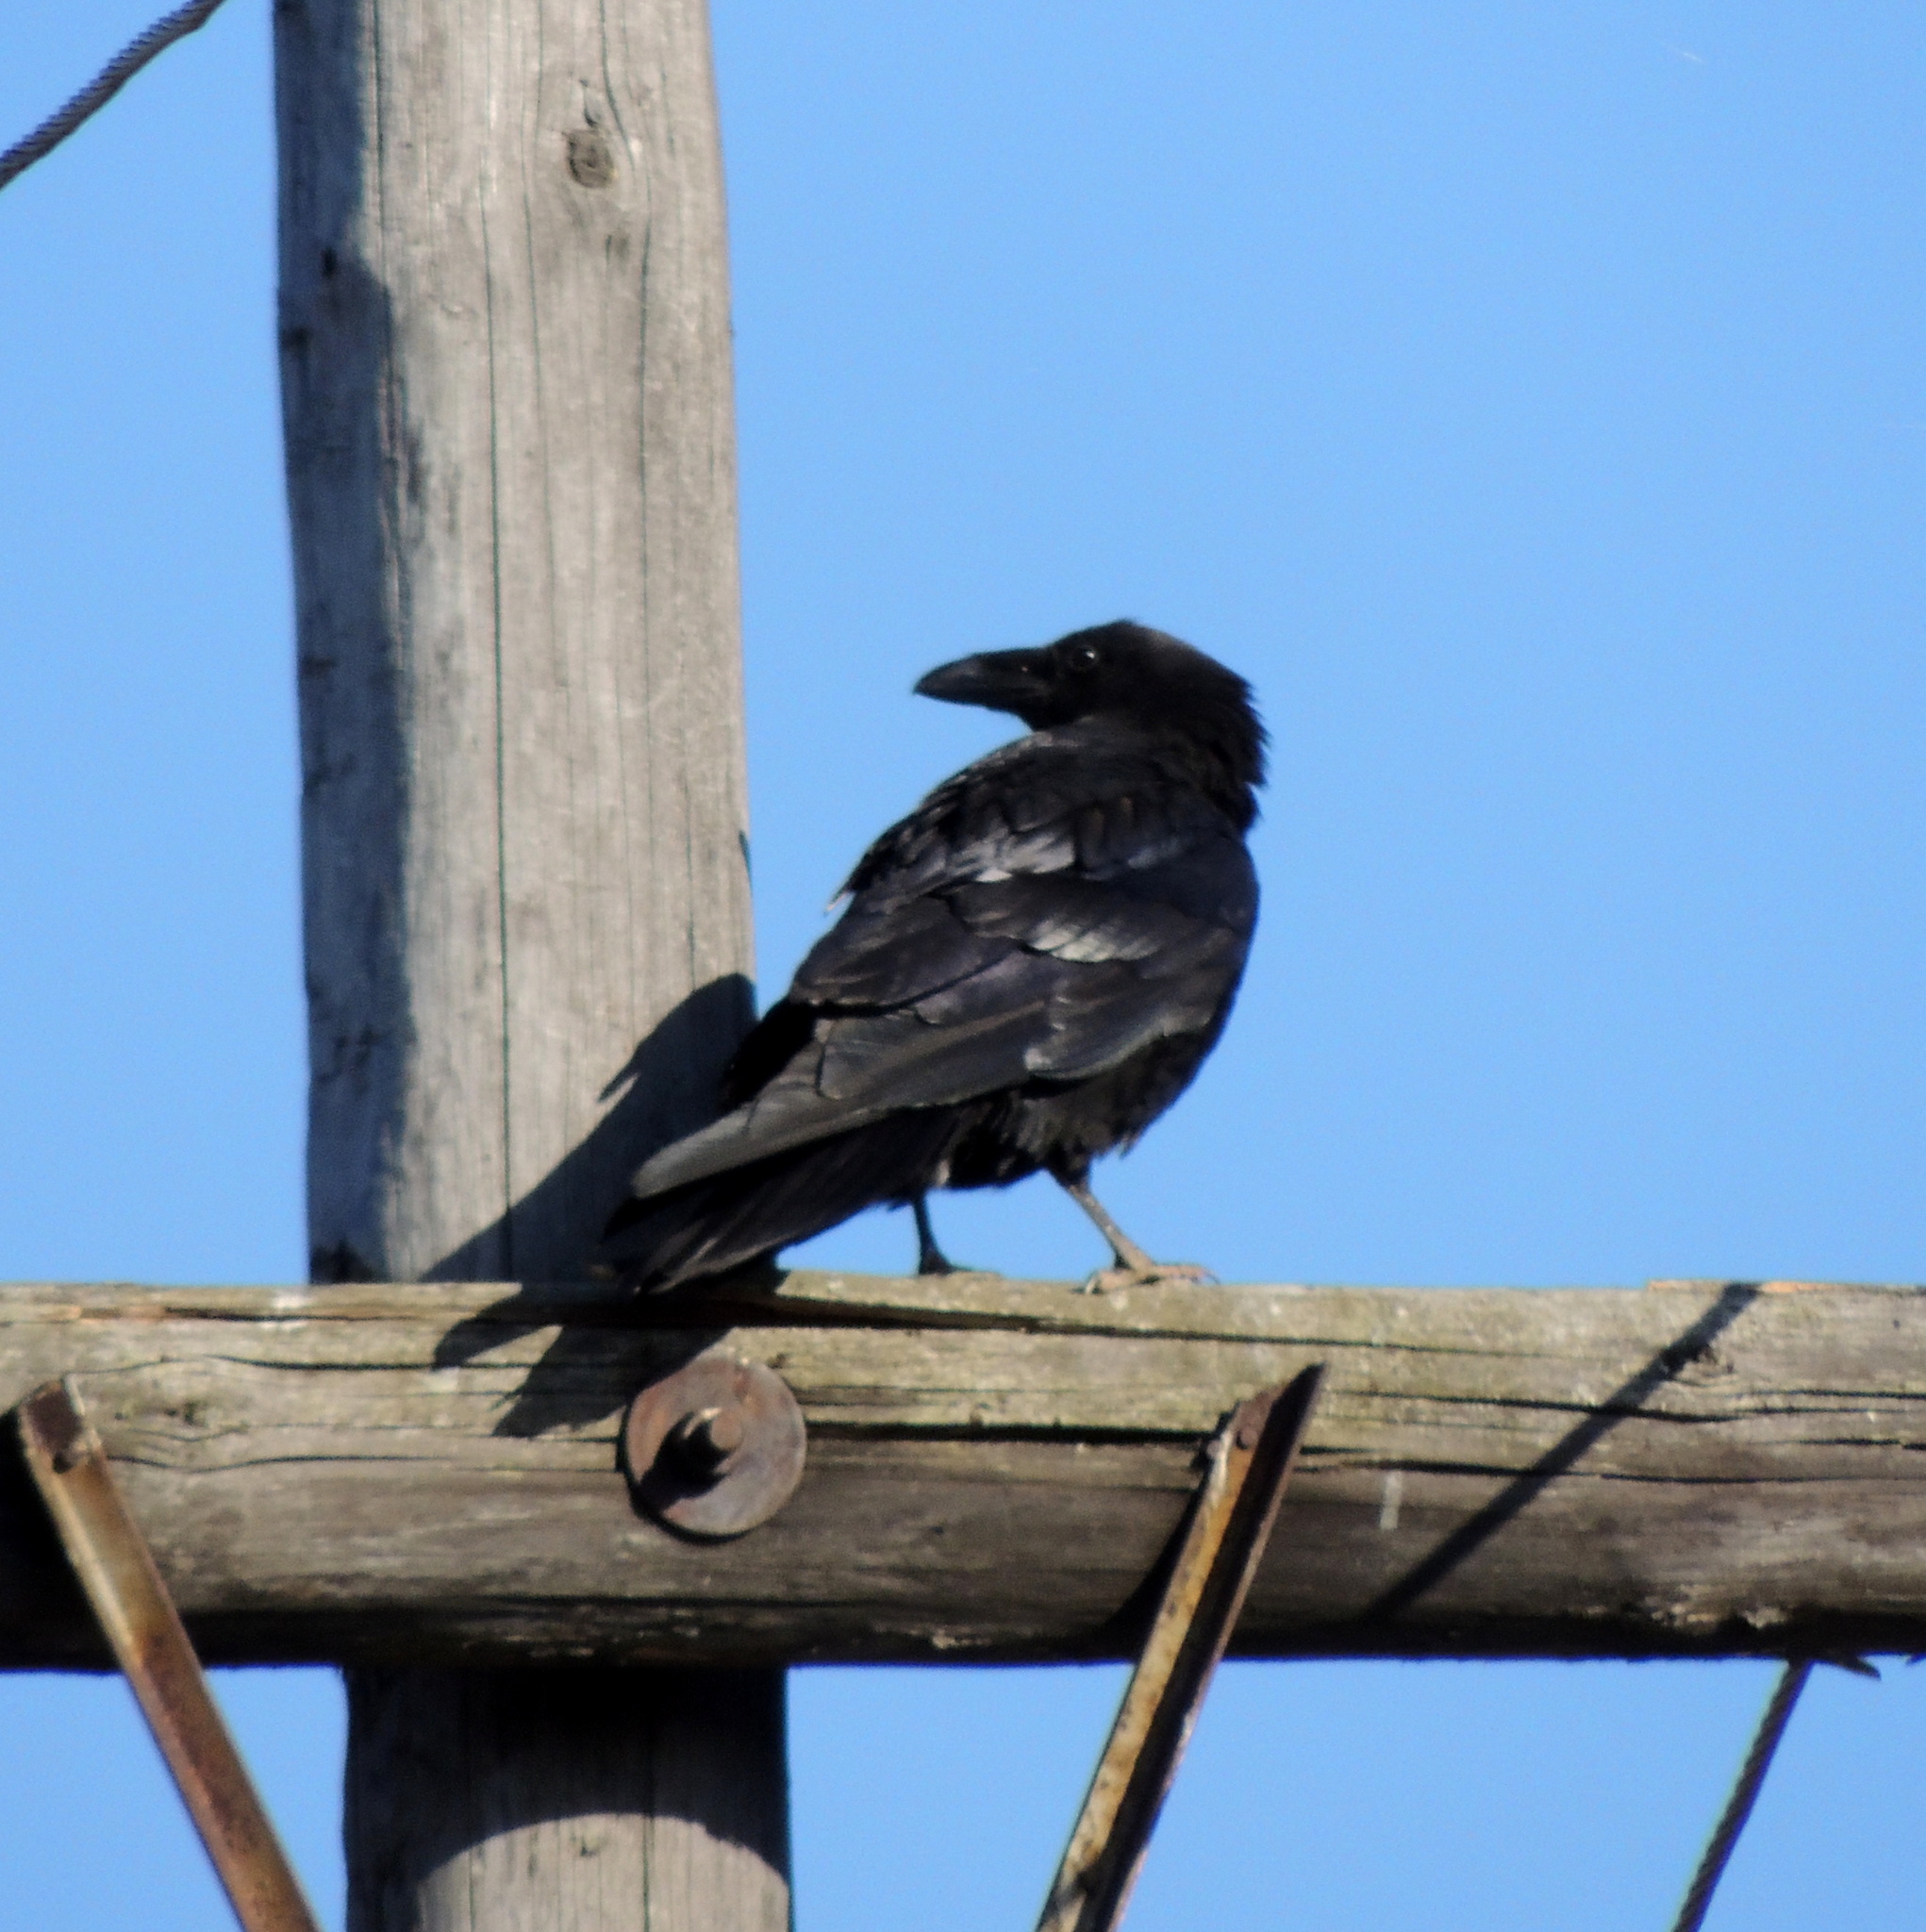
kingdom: Animalia
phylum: Chordata
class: Aves
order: Passeriformes
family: Corvidae
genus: Corvus
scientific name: Corvus corax
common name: Common raven
